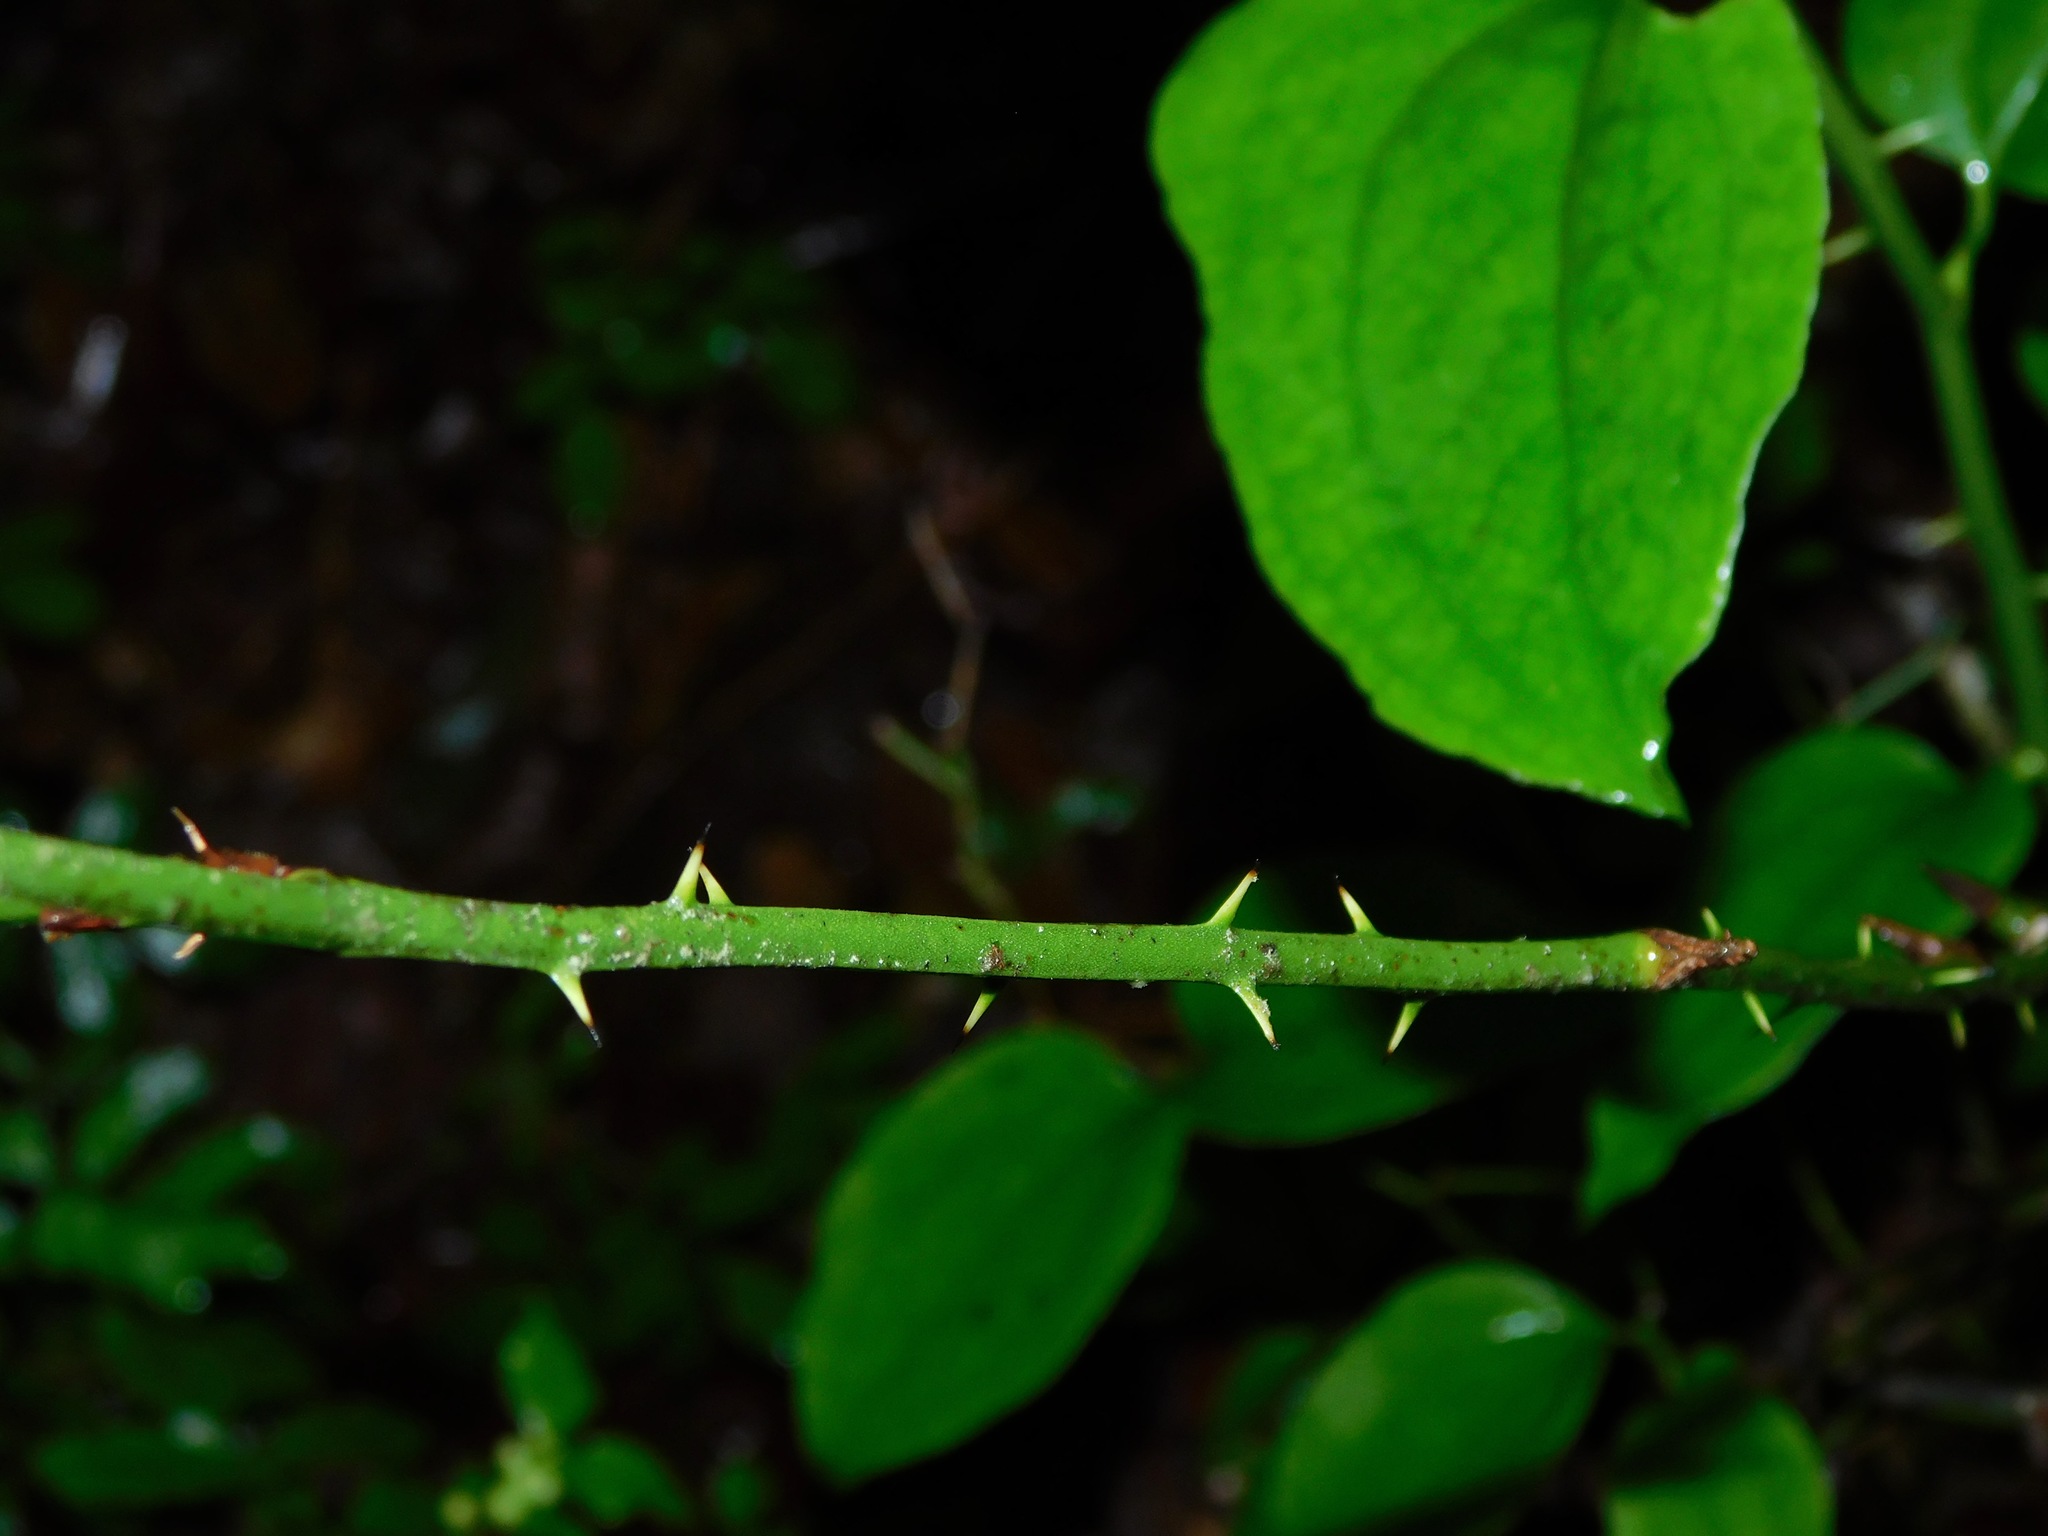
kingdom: Plantae
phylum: Tracheophyta
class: Liliopsida
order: Liliales
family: Smilacaceae
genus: Smilax
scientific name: Smilax rotundifolia
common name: Bullbriar
